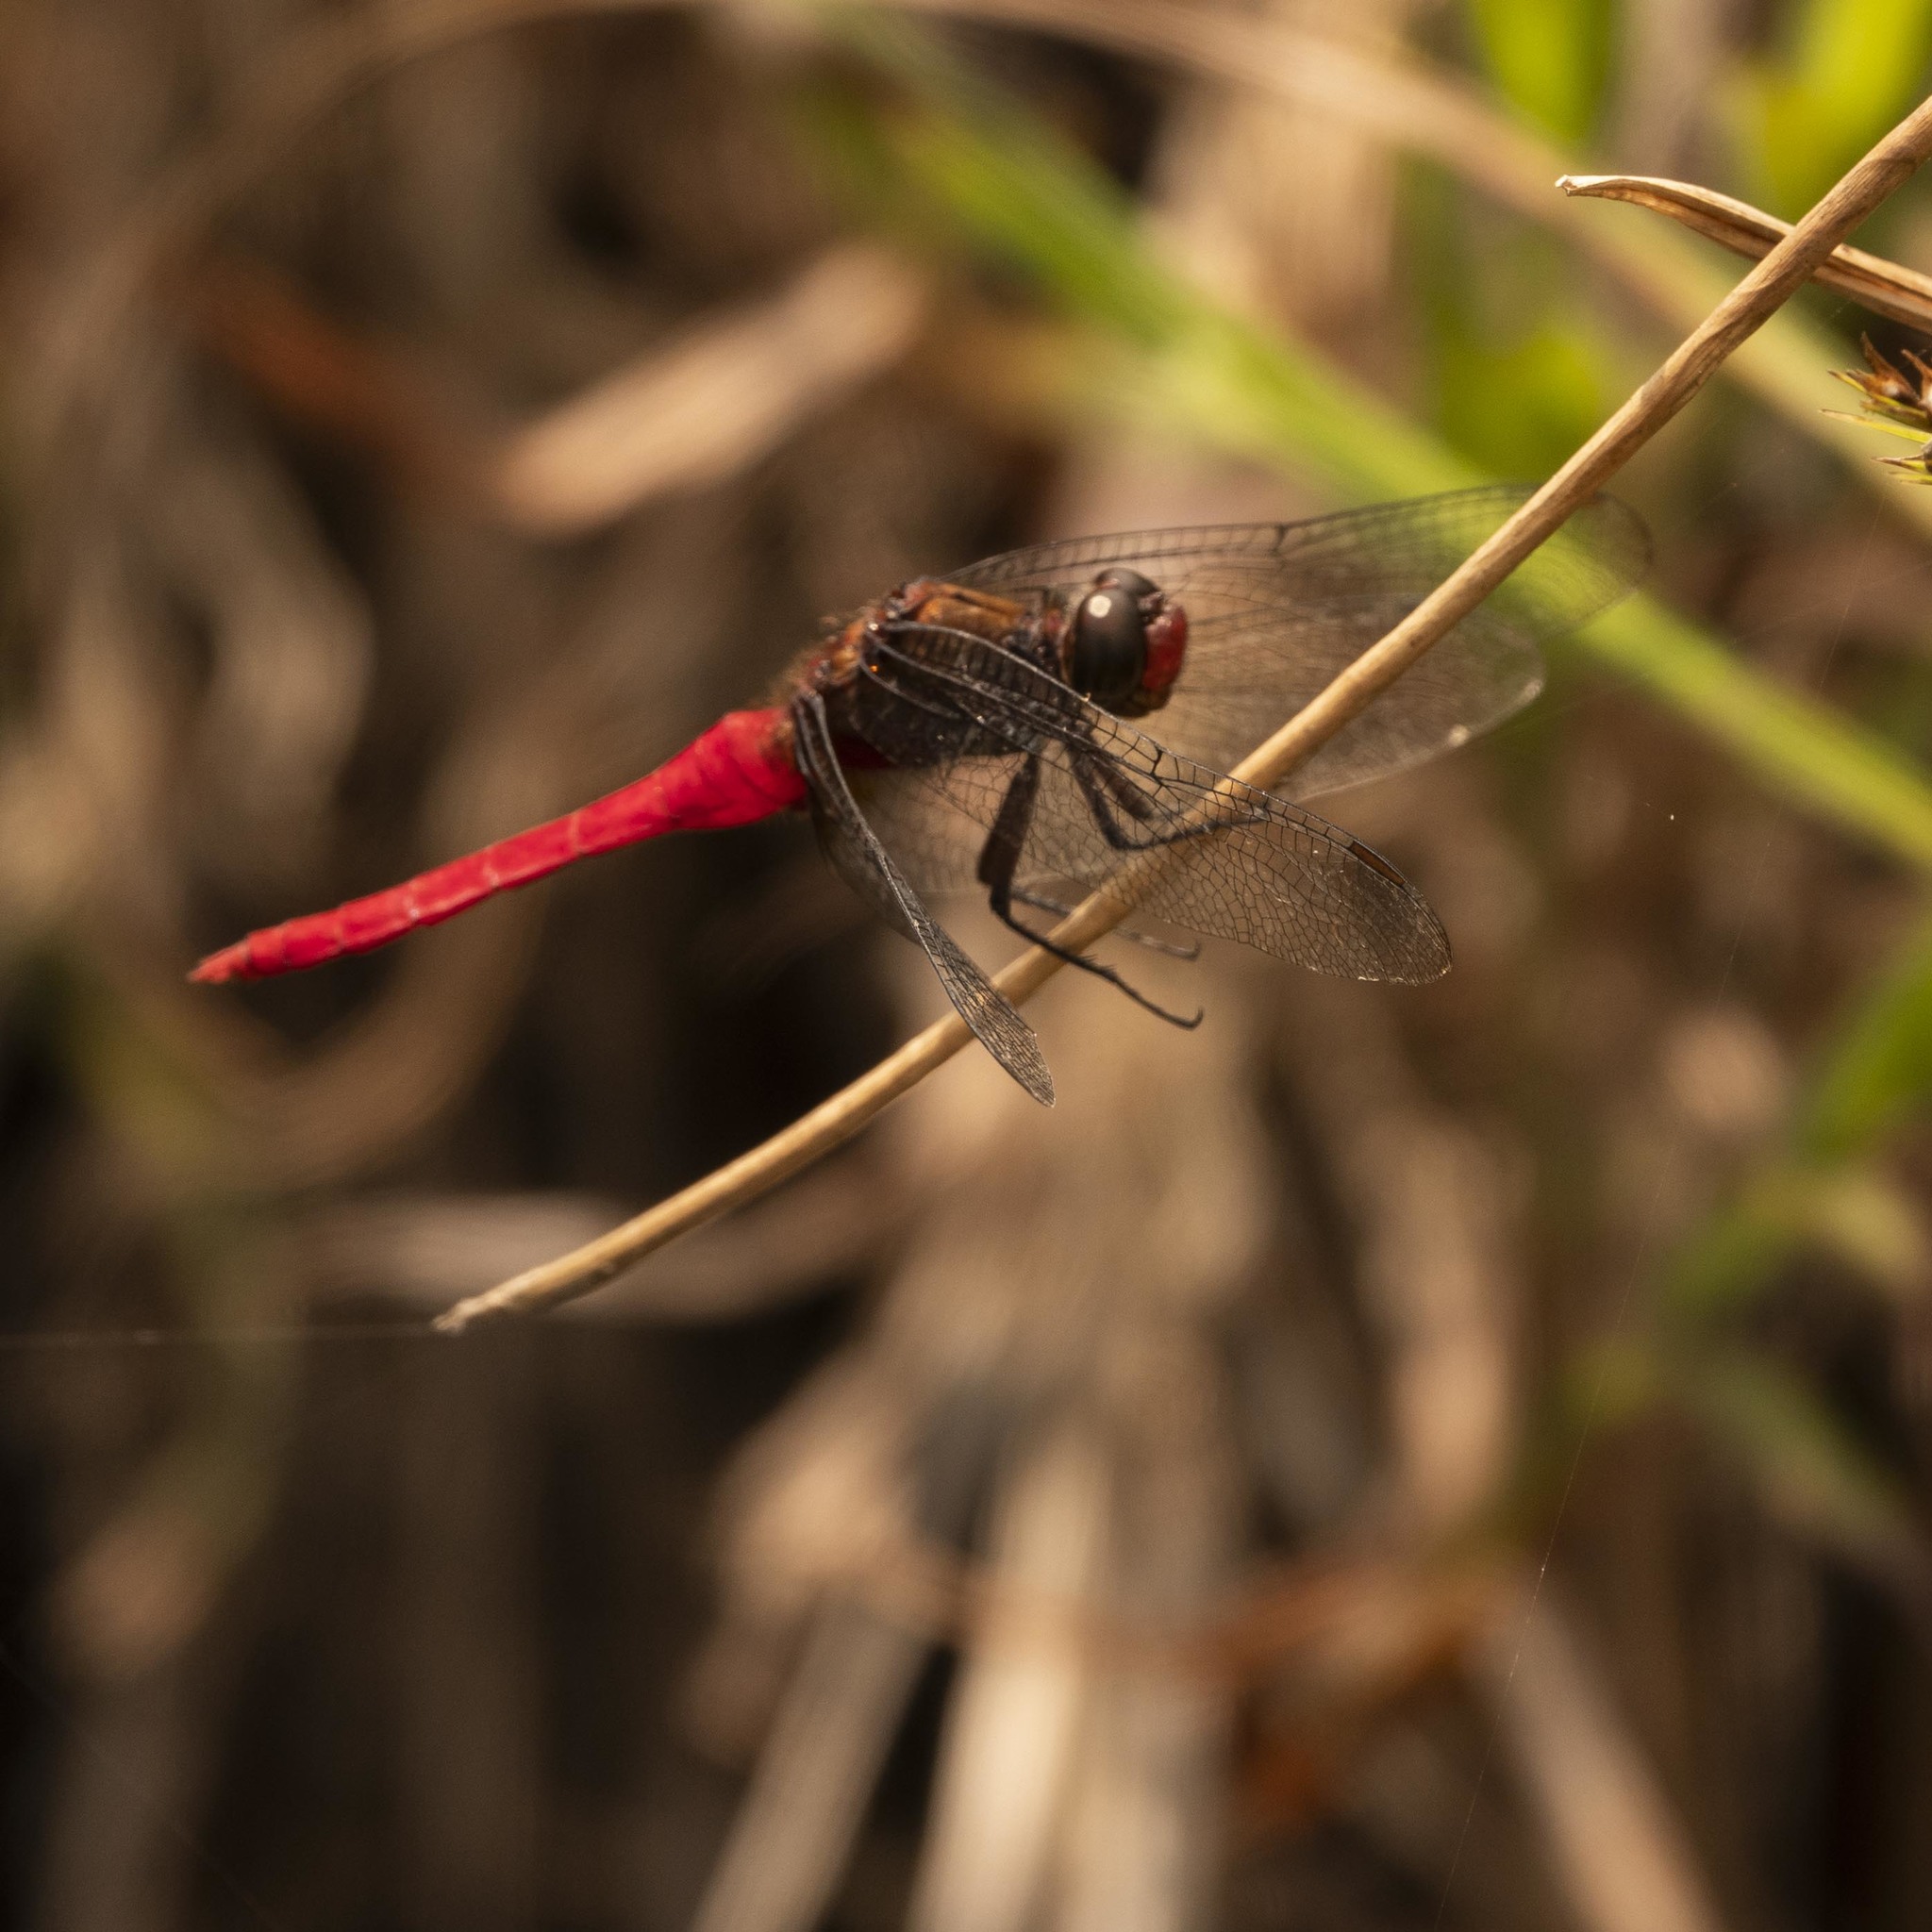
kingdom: Animalia
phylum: Arthropoda
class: Insecta
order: Odonata
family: Libellulidae
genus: Orthetrum
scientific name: Orthetrum chrysis
